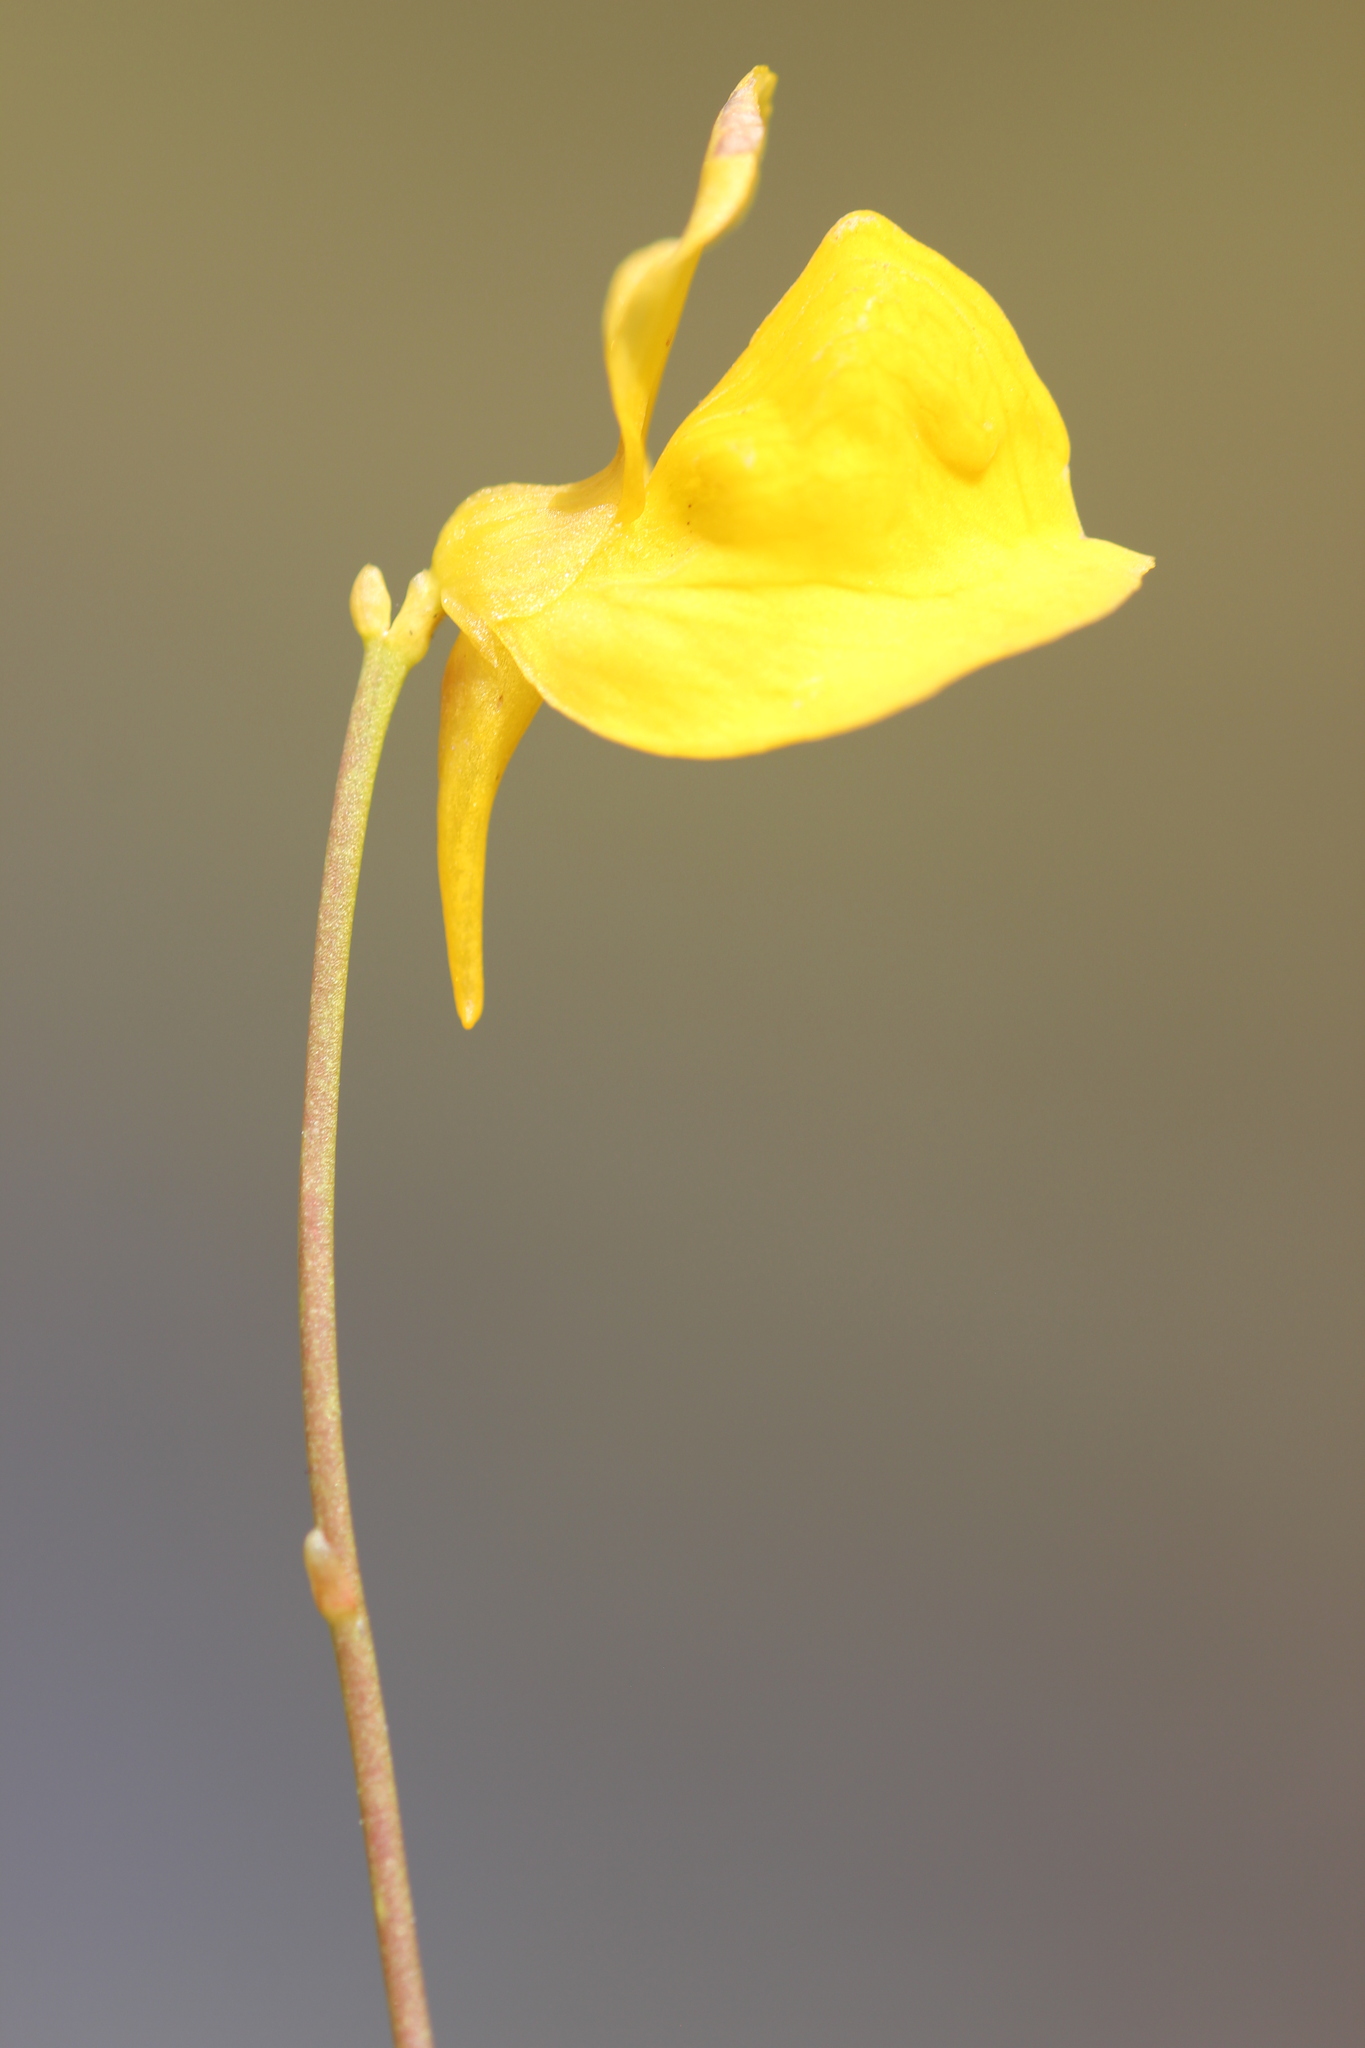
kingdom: Plantae
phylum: Tracheophyta
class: Magnoliopsida
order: Lamiales
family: Lentibulariaceae
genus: Utricularia
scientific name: Utricularia cornuta
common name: Horned bladderwort
